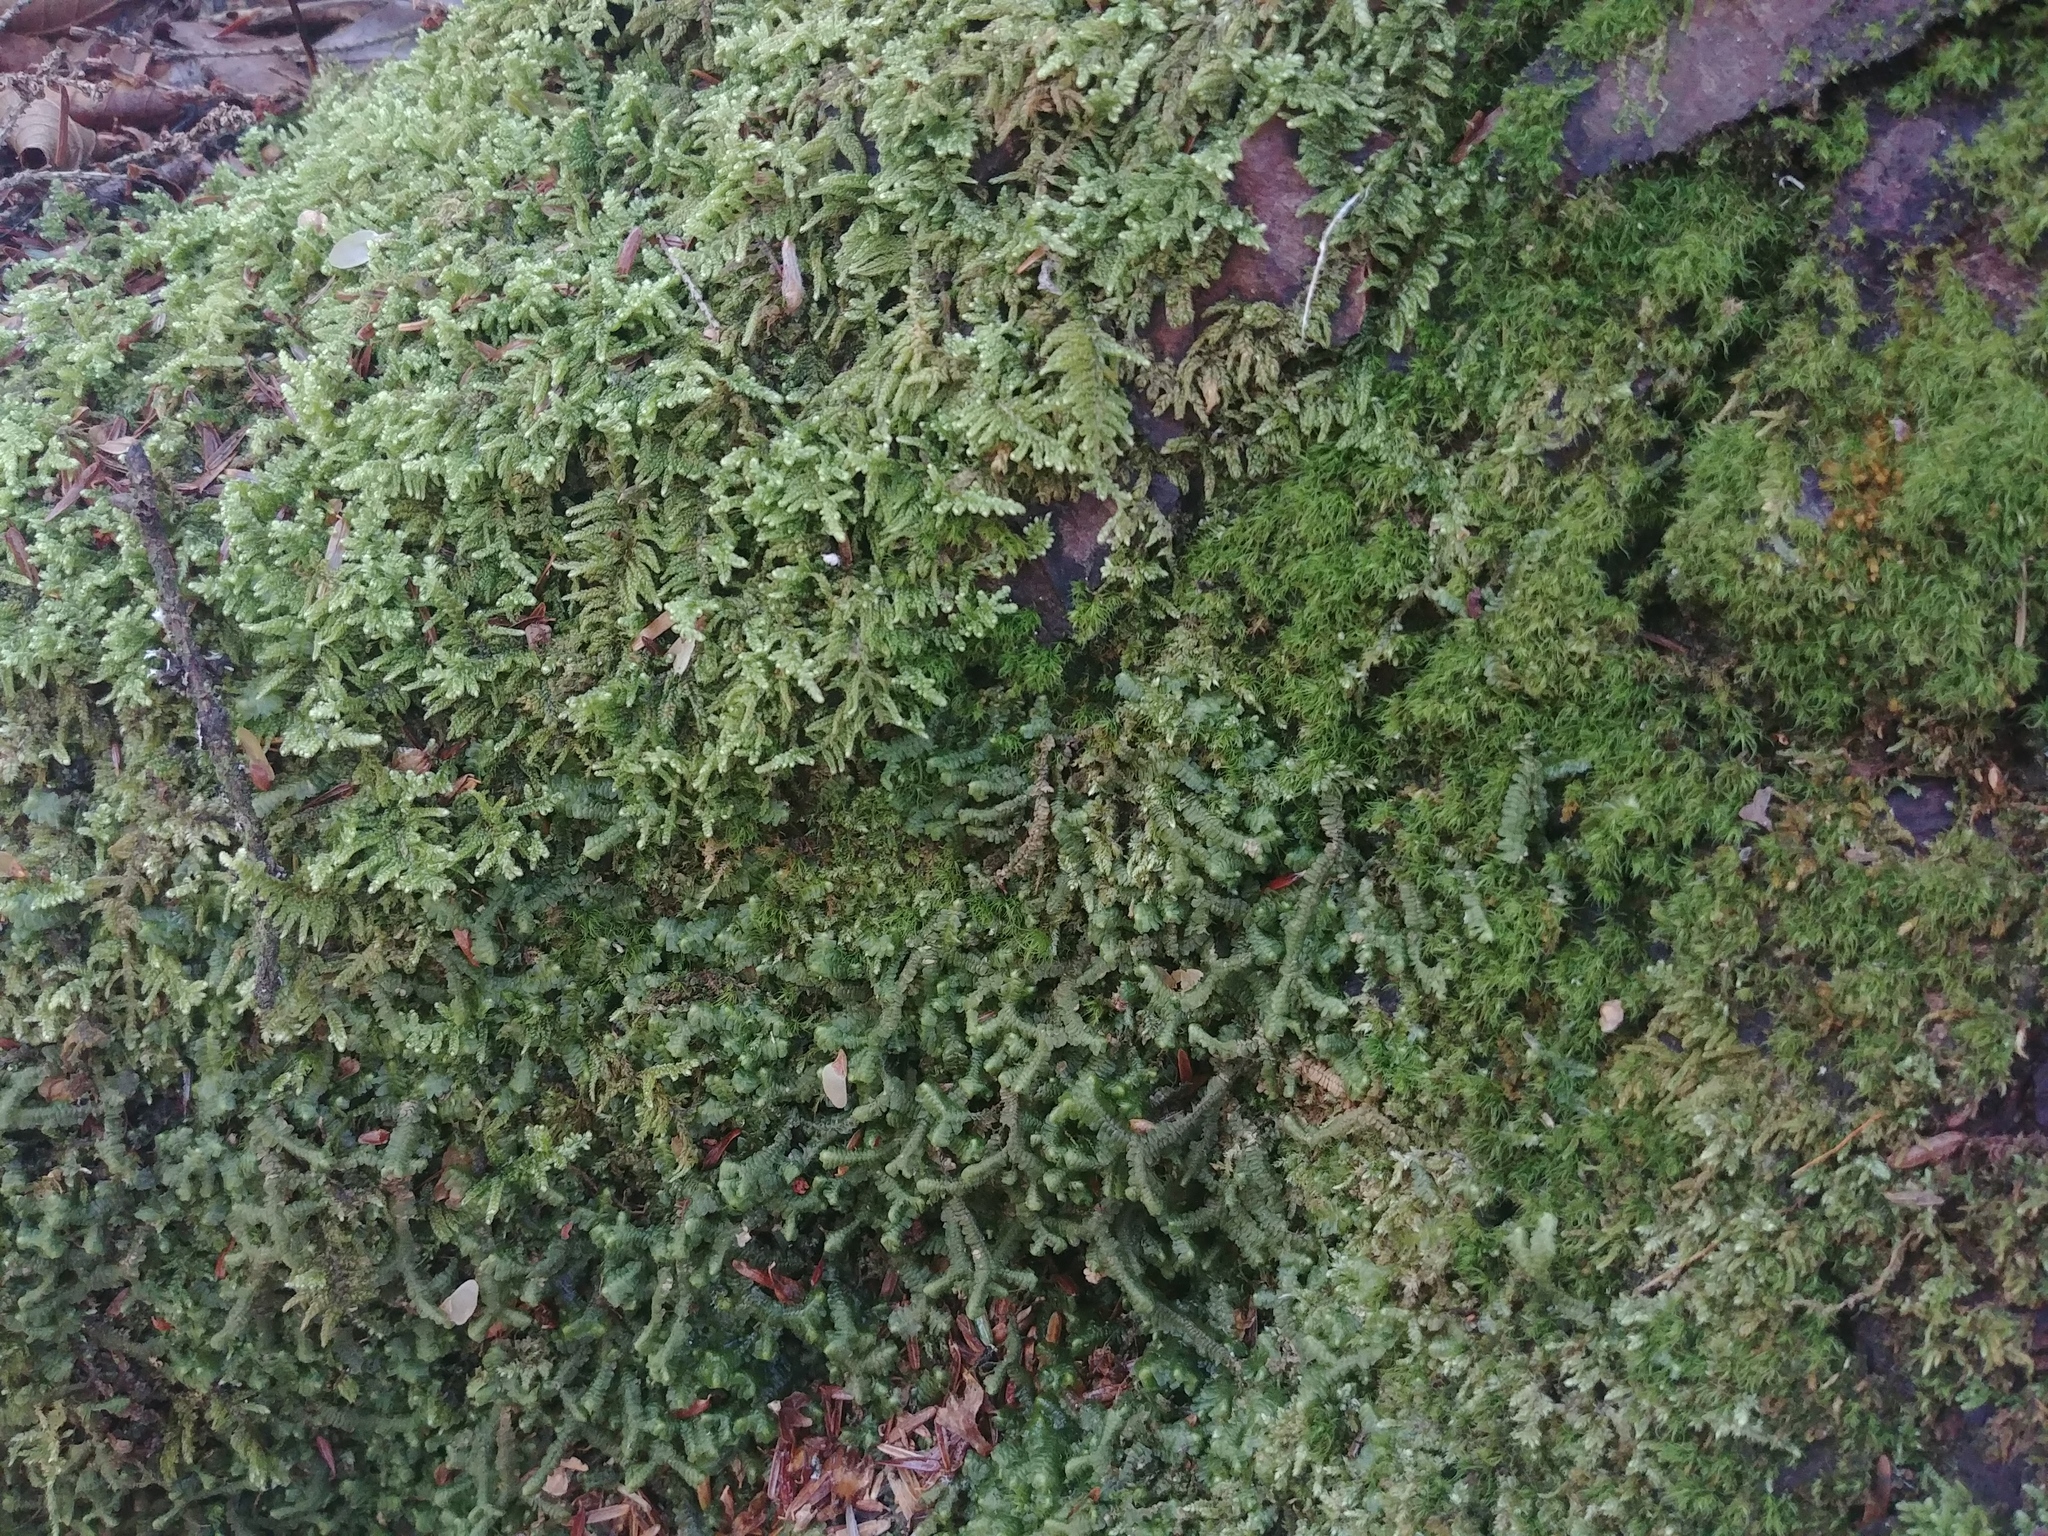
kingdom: Plantae
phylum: Marchantiophyta
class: Jungermanniopsida
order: Jungermanniales
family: Lepidoziaceae
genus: Bazzania
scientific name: Bazzania trilobata
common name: Three-lobed whipwort
